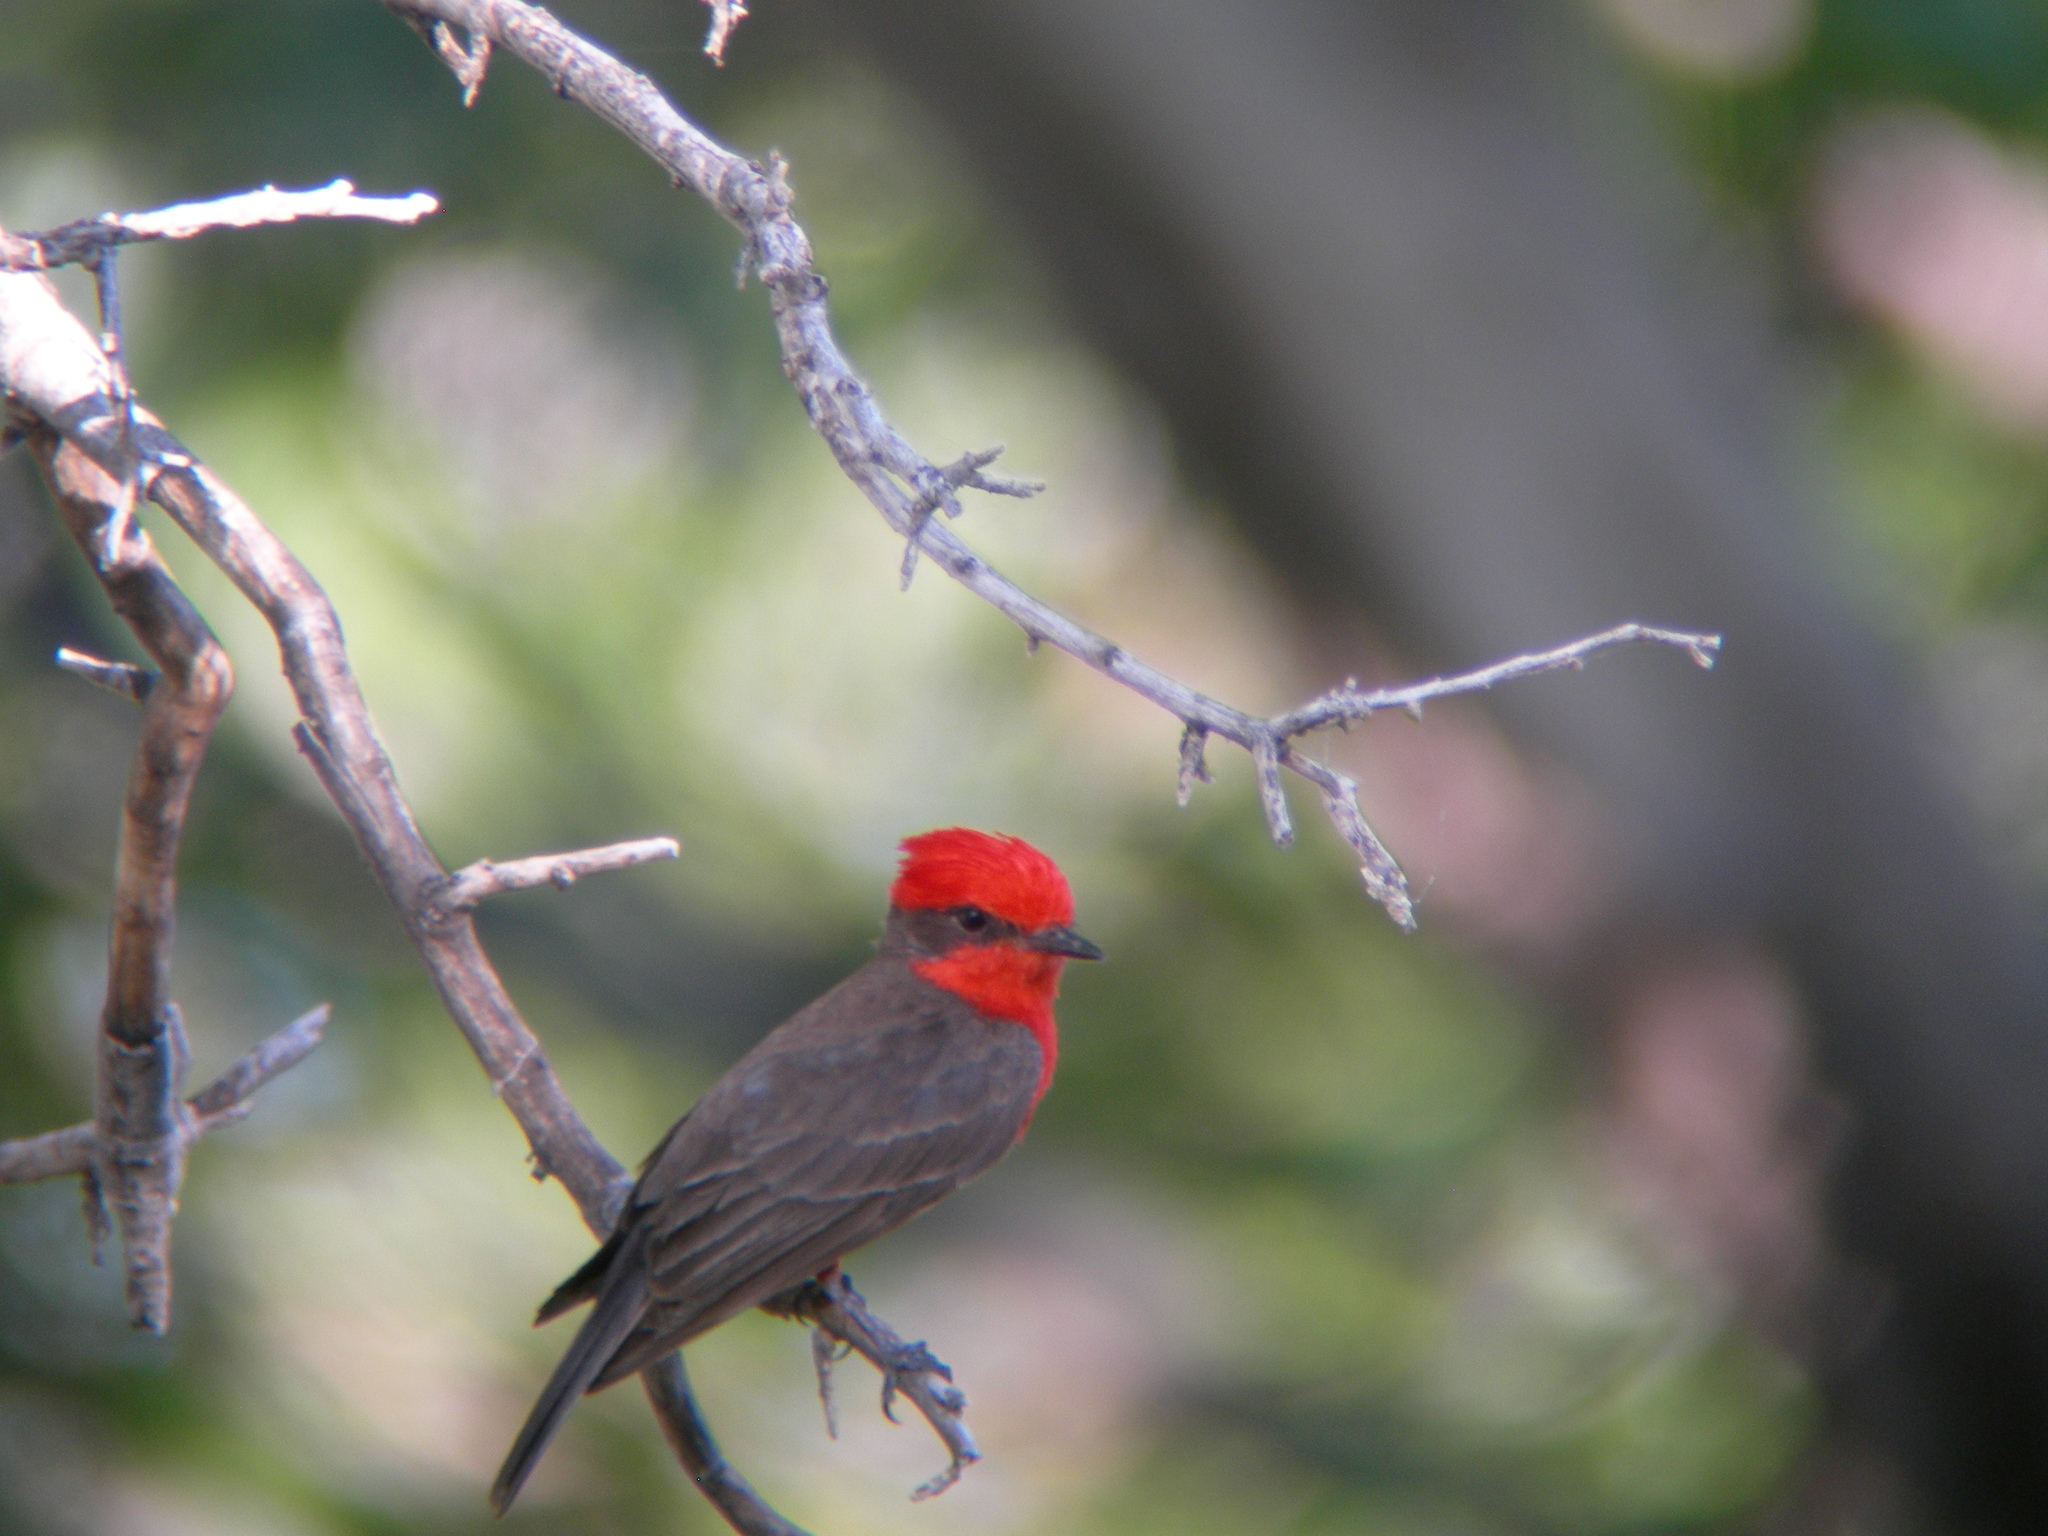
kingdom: Animalia
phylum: Chordata
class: Aves
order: Passeriformes
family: Tyrannidae
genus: Pyrocephalus
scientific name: Pyrocephalus rubinus
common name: Vermilion flycatcher
